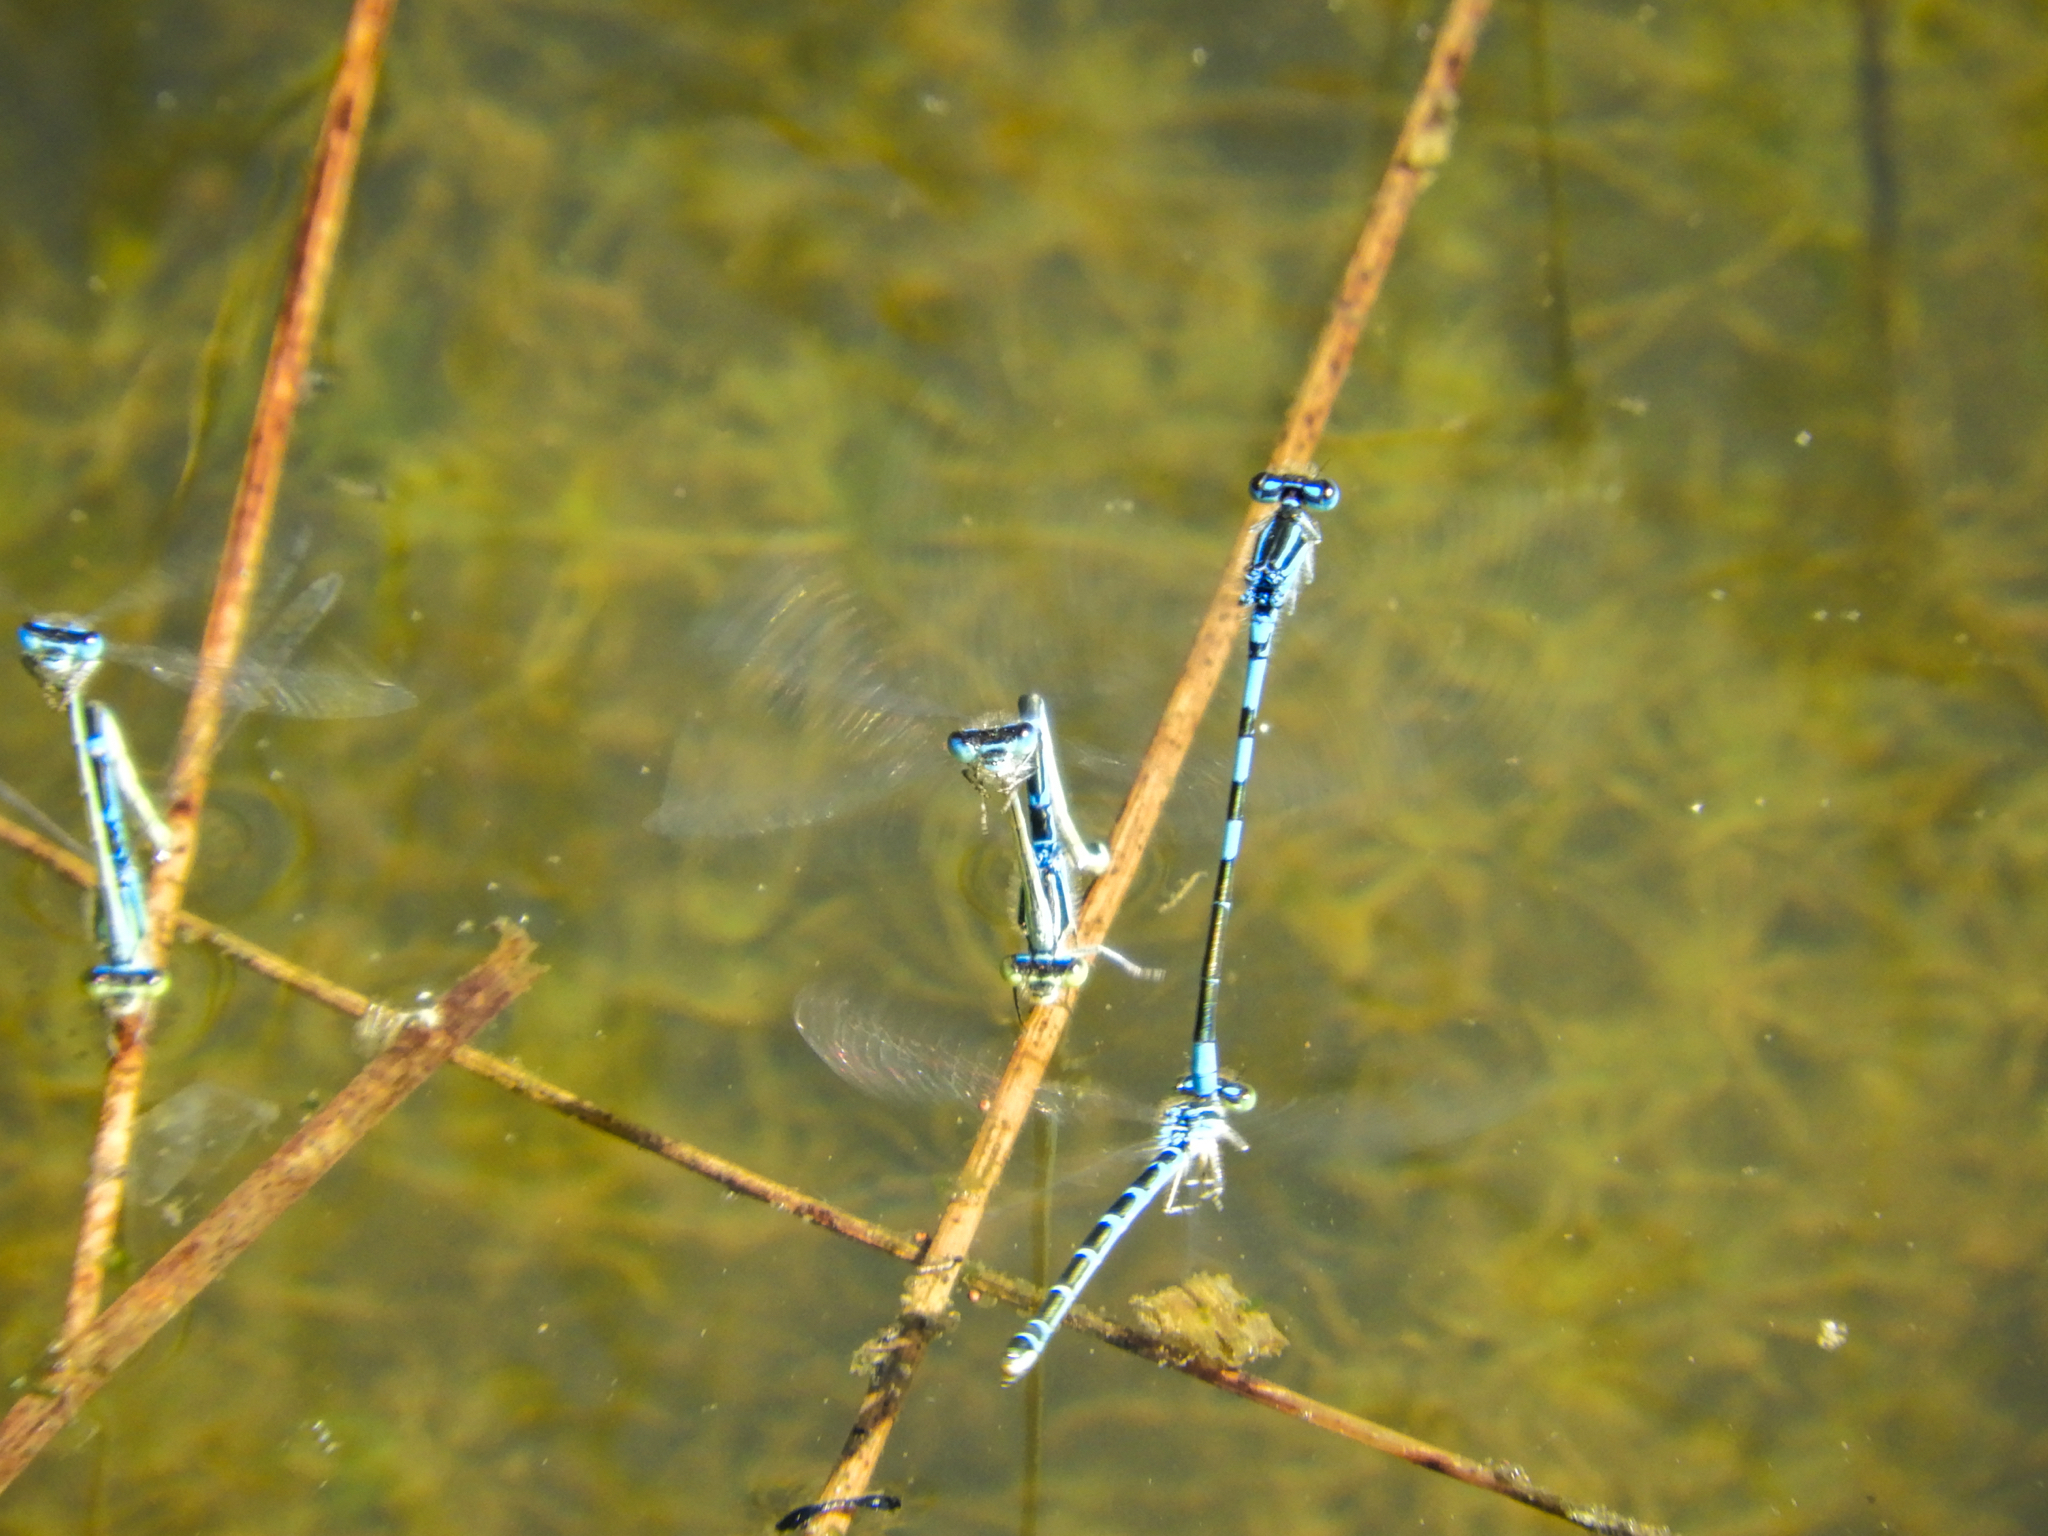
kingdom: Animalia
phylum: Arthropoda
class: Insecta
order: Odonata
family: Coenagrionidae
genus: Coenagrion
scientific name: Coenagrion scitulum
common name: Dainty bluet
